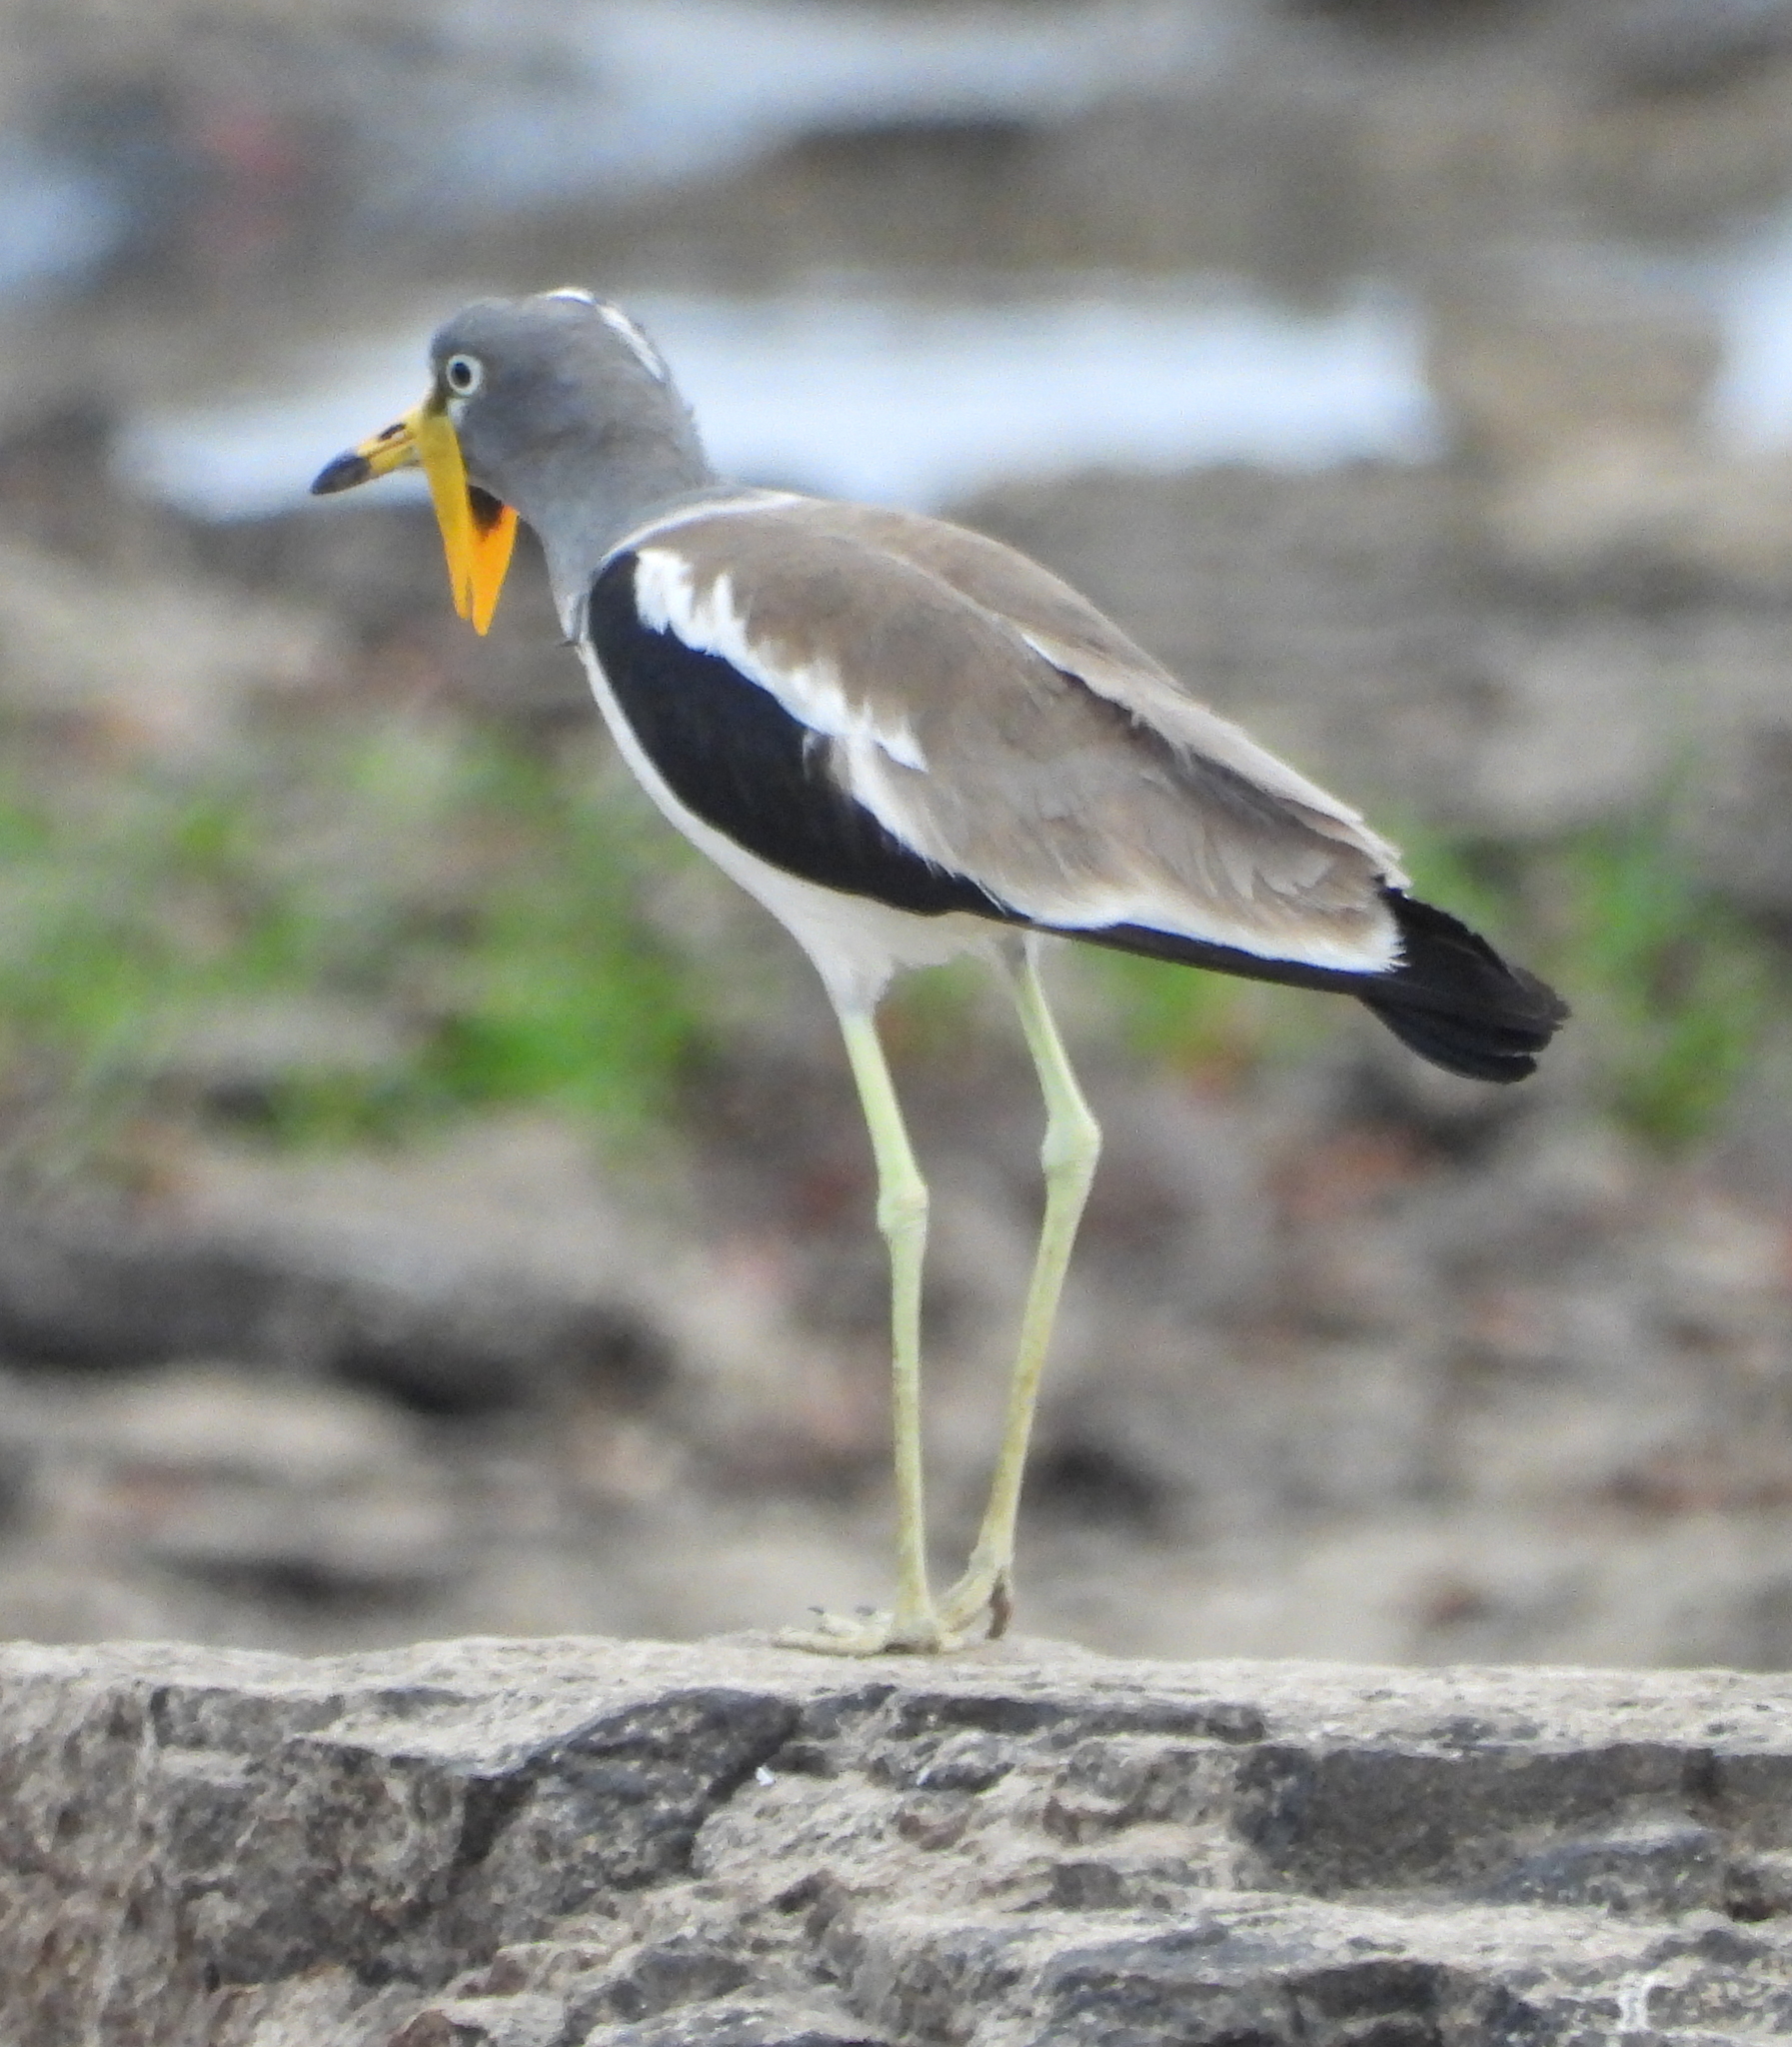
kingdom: Animalia
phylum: Chordata
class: Aves
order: Charadriiformes
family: Charadriidae
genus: Vanellus
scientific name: Vanellus albiceps
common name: White-crowned lapwing
